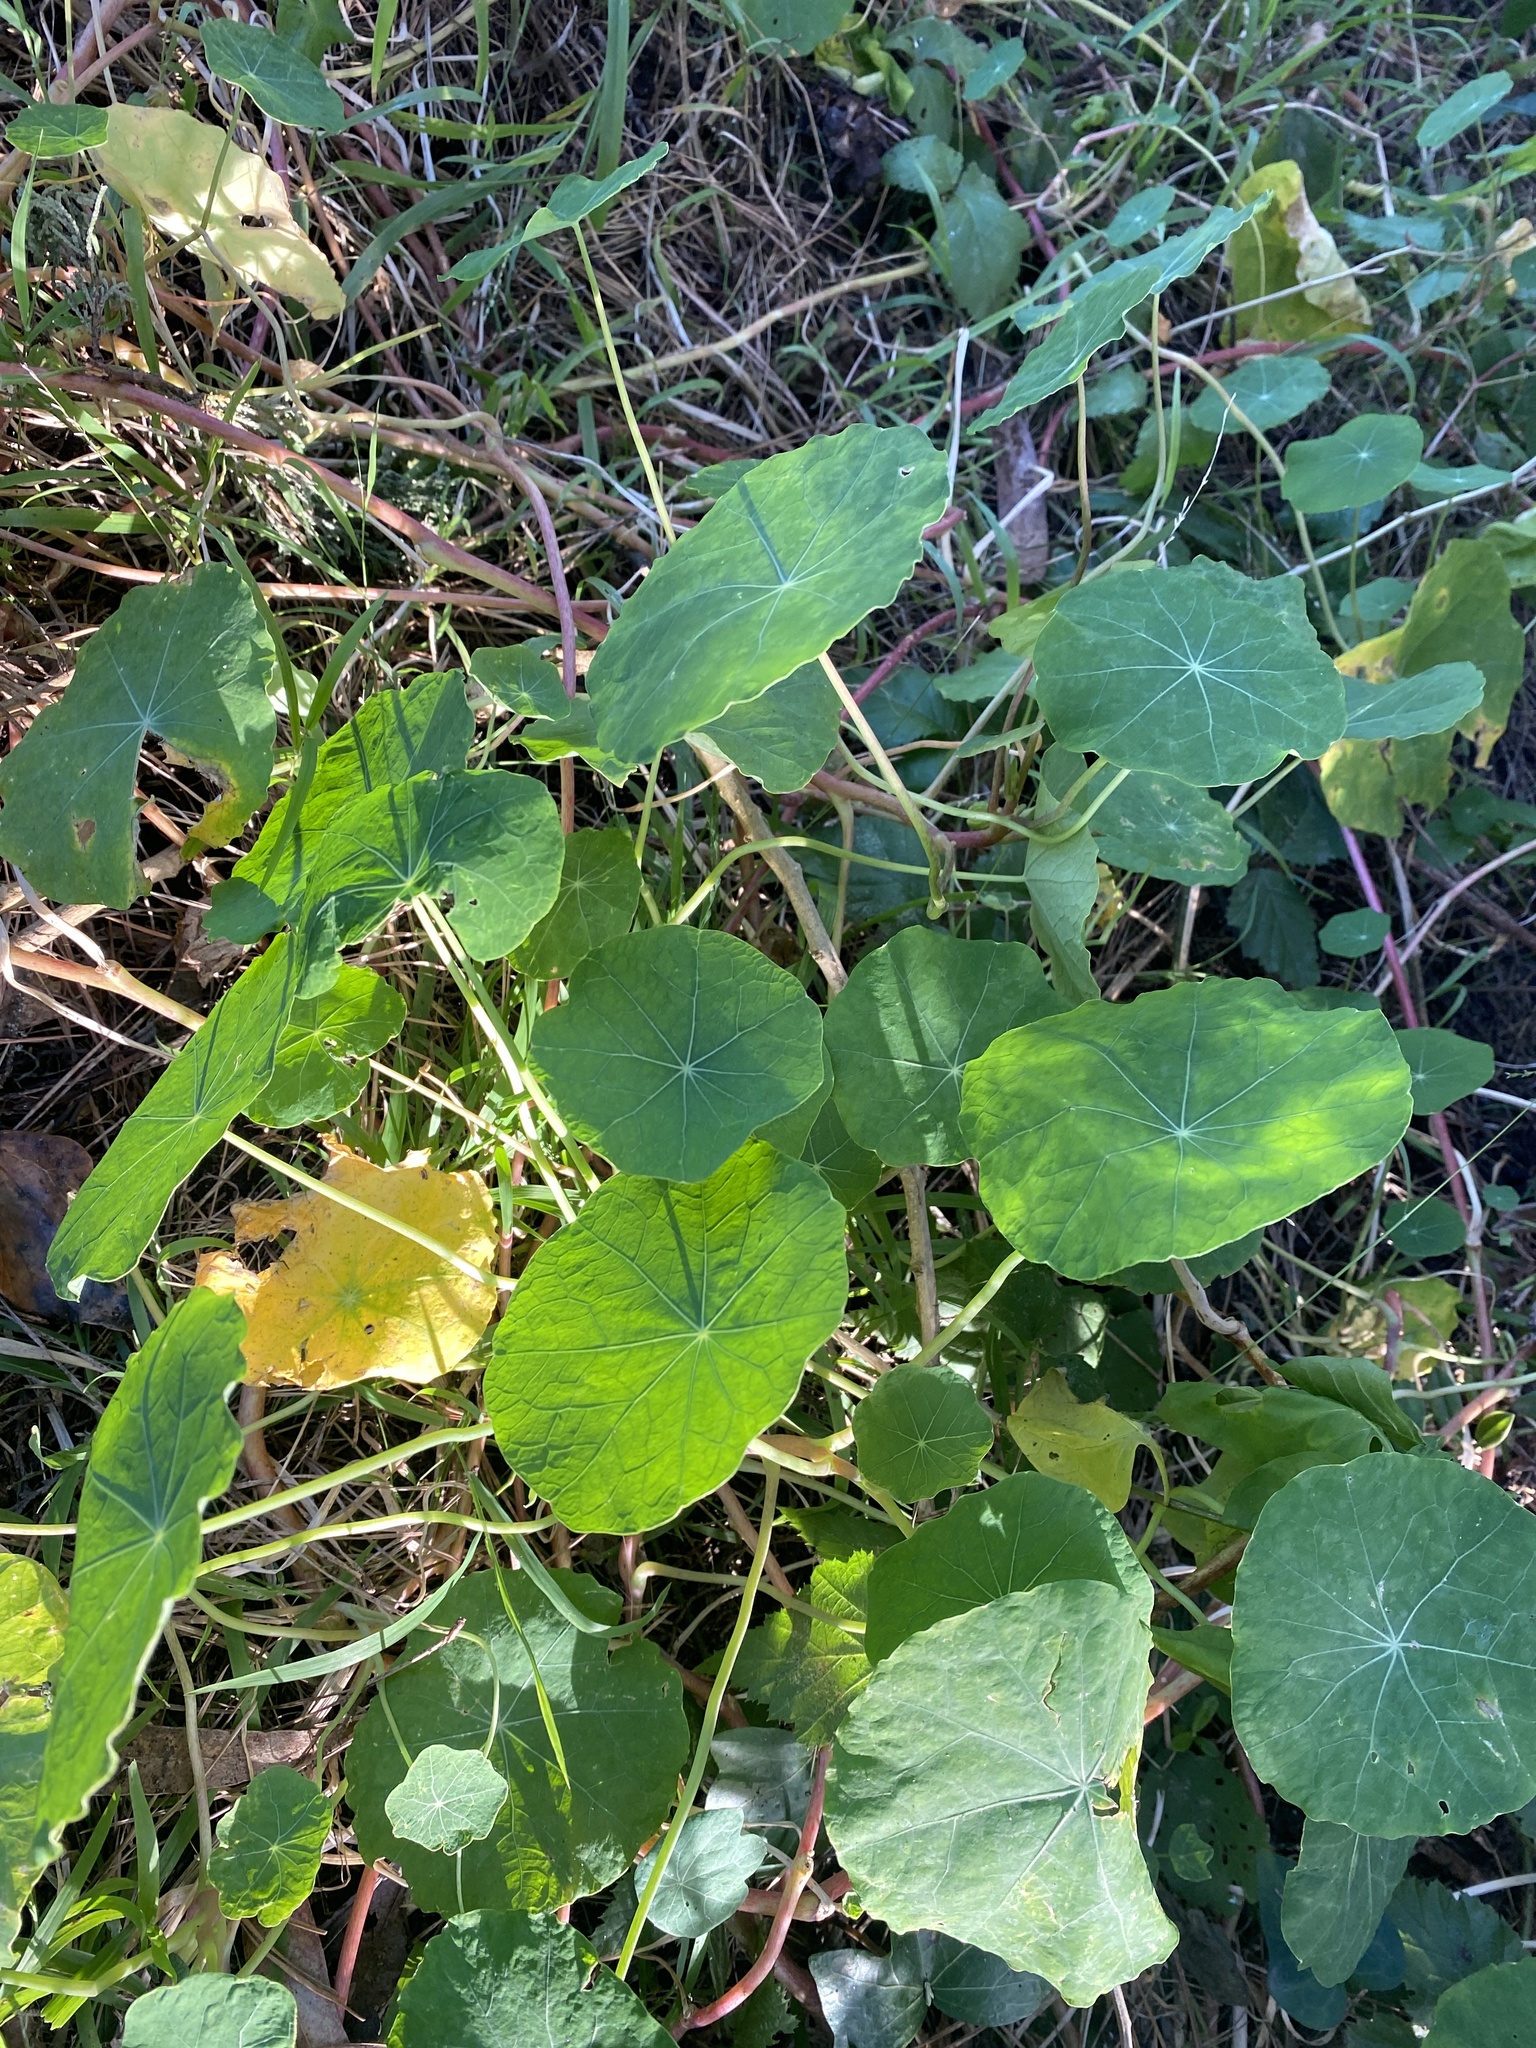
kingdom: Plantae
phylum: Tracheophyta
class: Magnoliopsida
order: Brassicales
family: Tropaeolaceae
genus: Tropaeolum
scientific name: Tropaeolum majus
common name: Nasturtium
